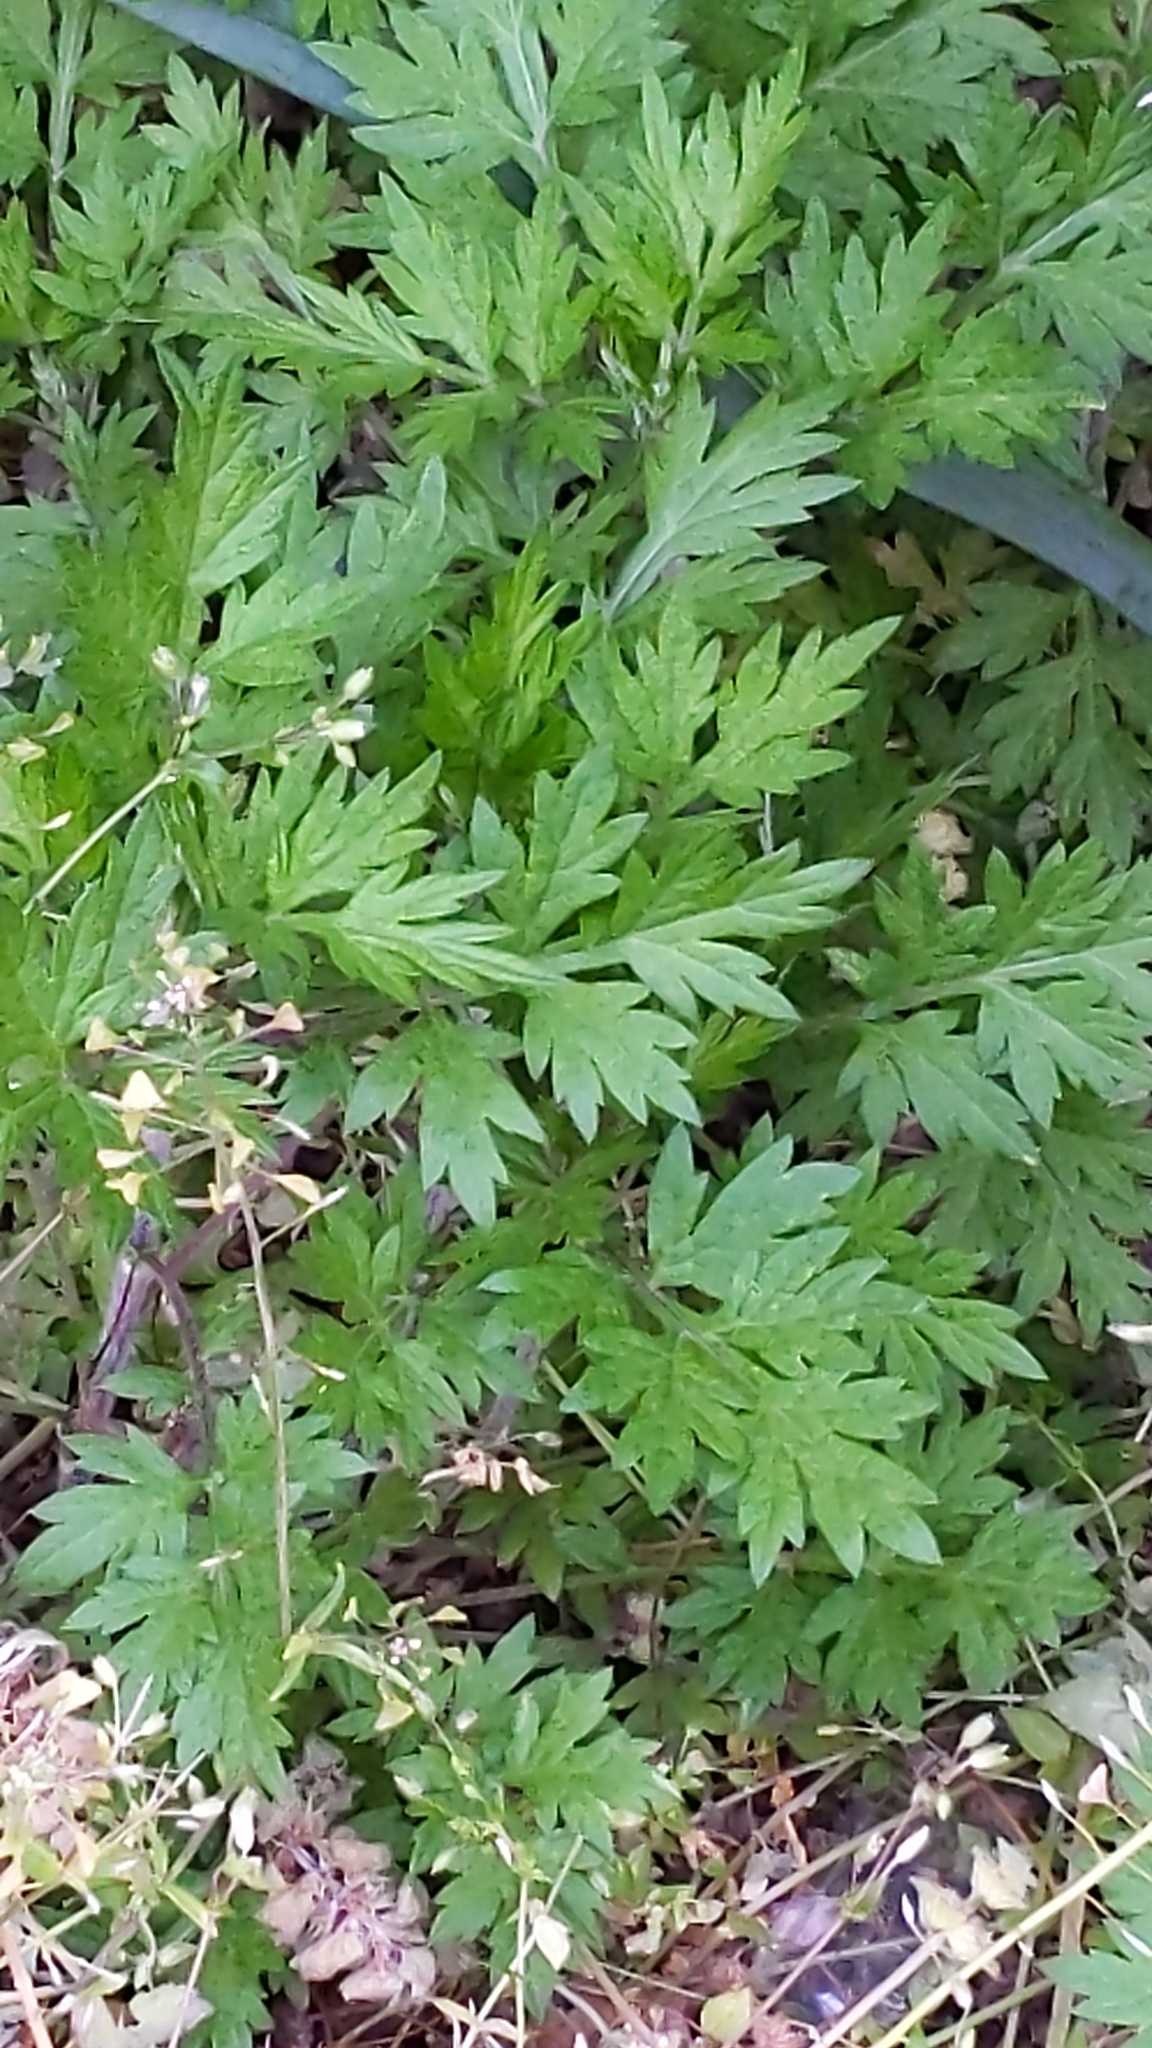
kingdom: Plantae
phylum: Tracheophyta
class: Magnoliopsida
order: Asterales
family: Asteraceae
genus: Artemisia
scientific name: Artemisia vulgaris
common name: Mugwort
